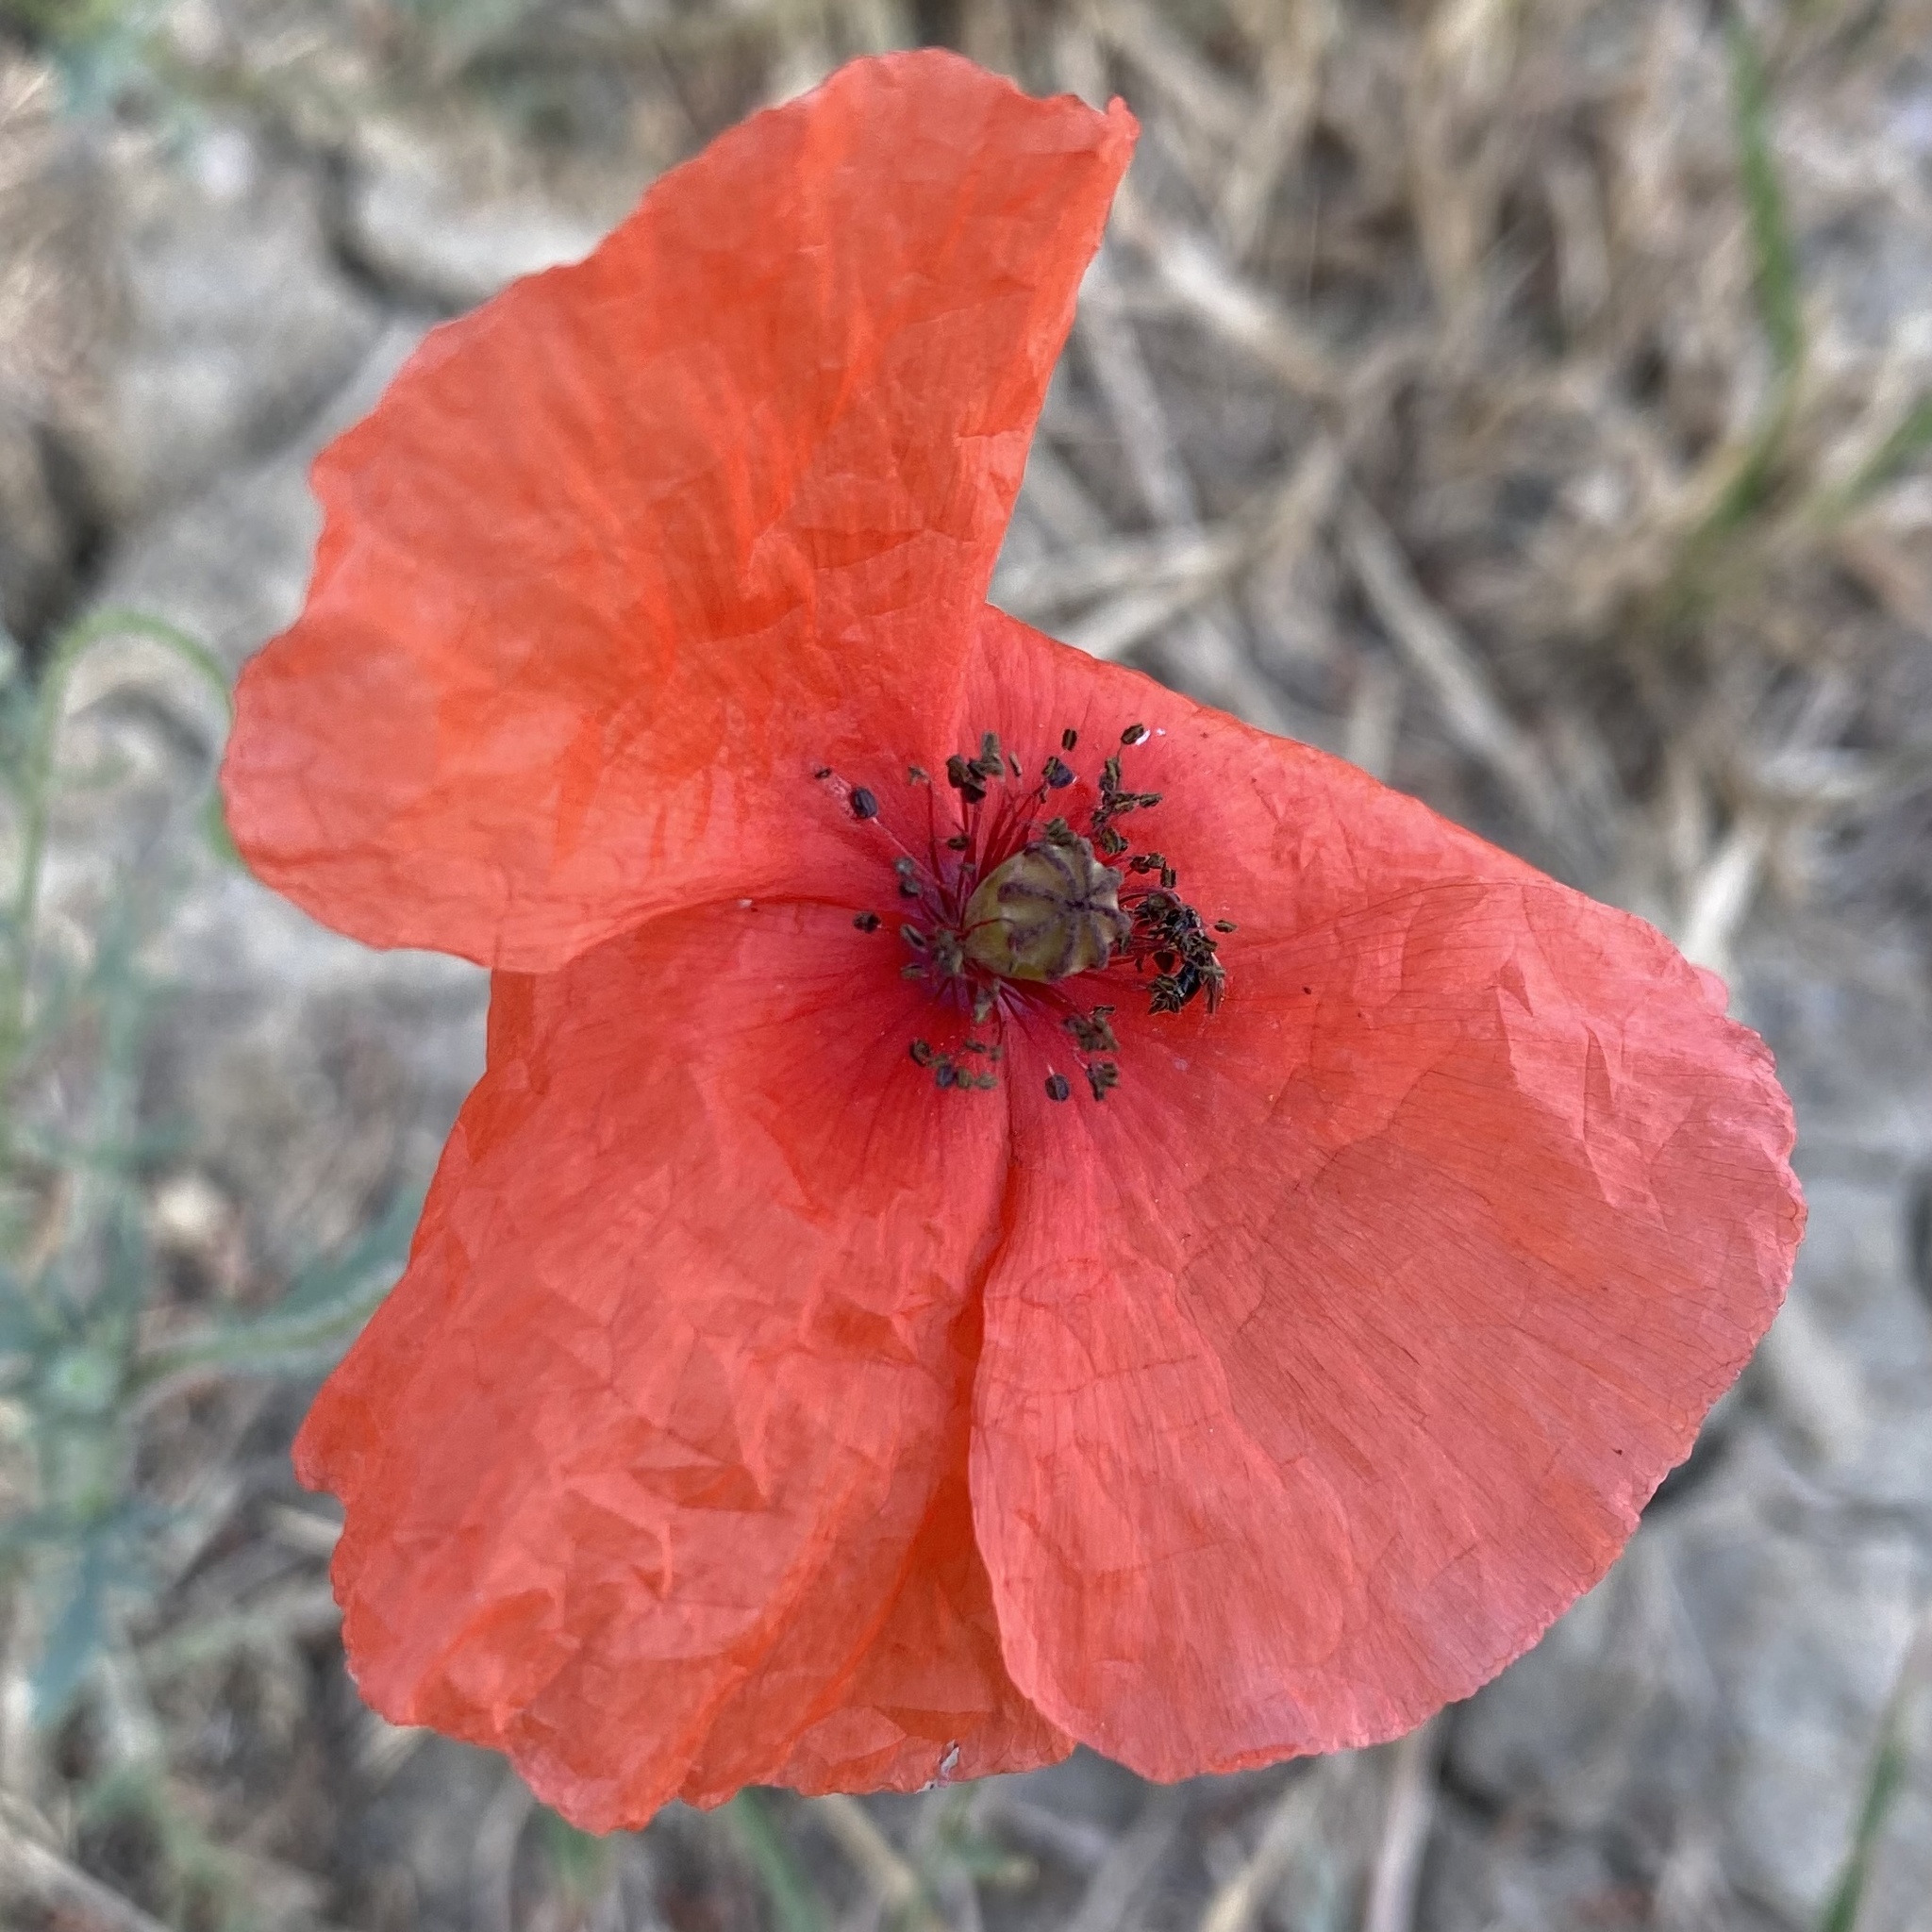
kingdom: Plantae
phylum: Tracheophyta
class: Magnoliopsida
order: Ranunculales
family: Papaveraceae
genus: Papaver
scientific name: Papaver rhoeas
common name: Corn poppy
